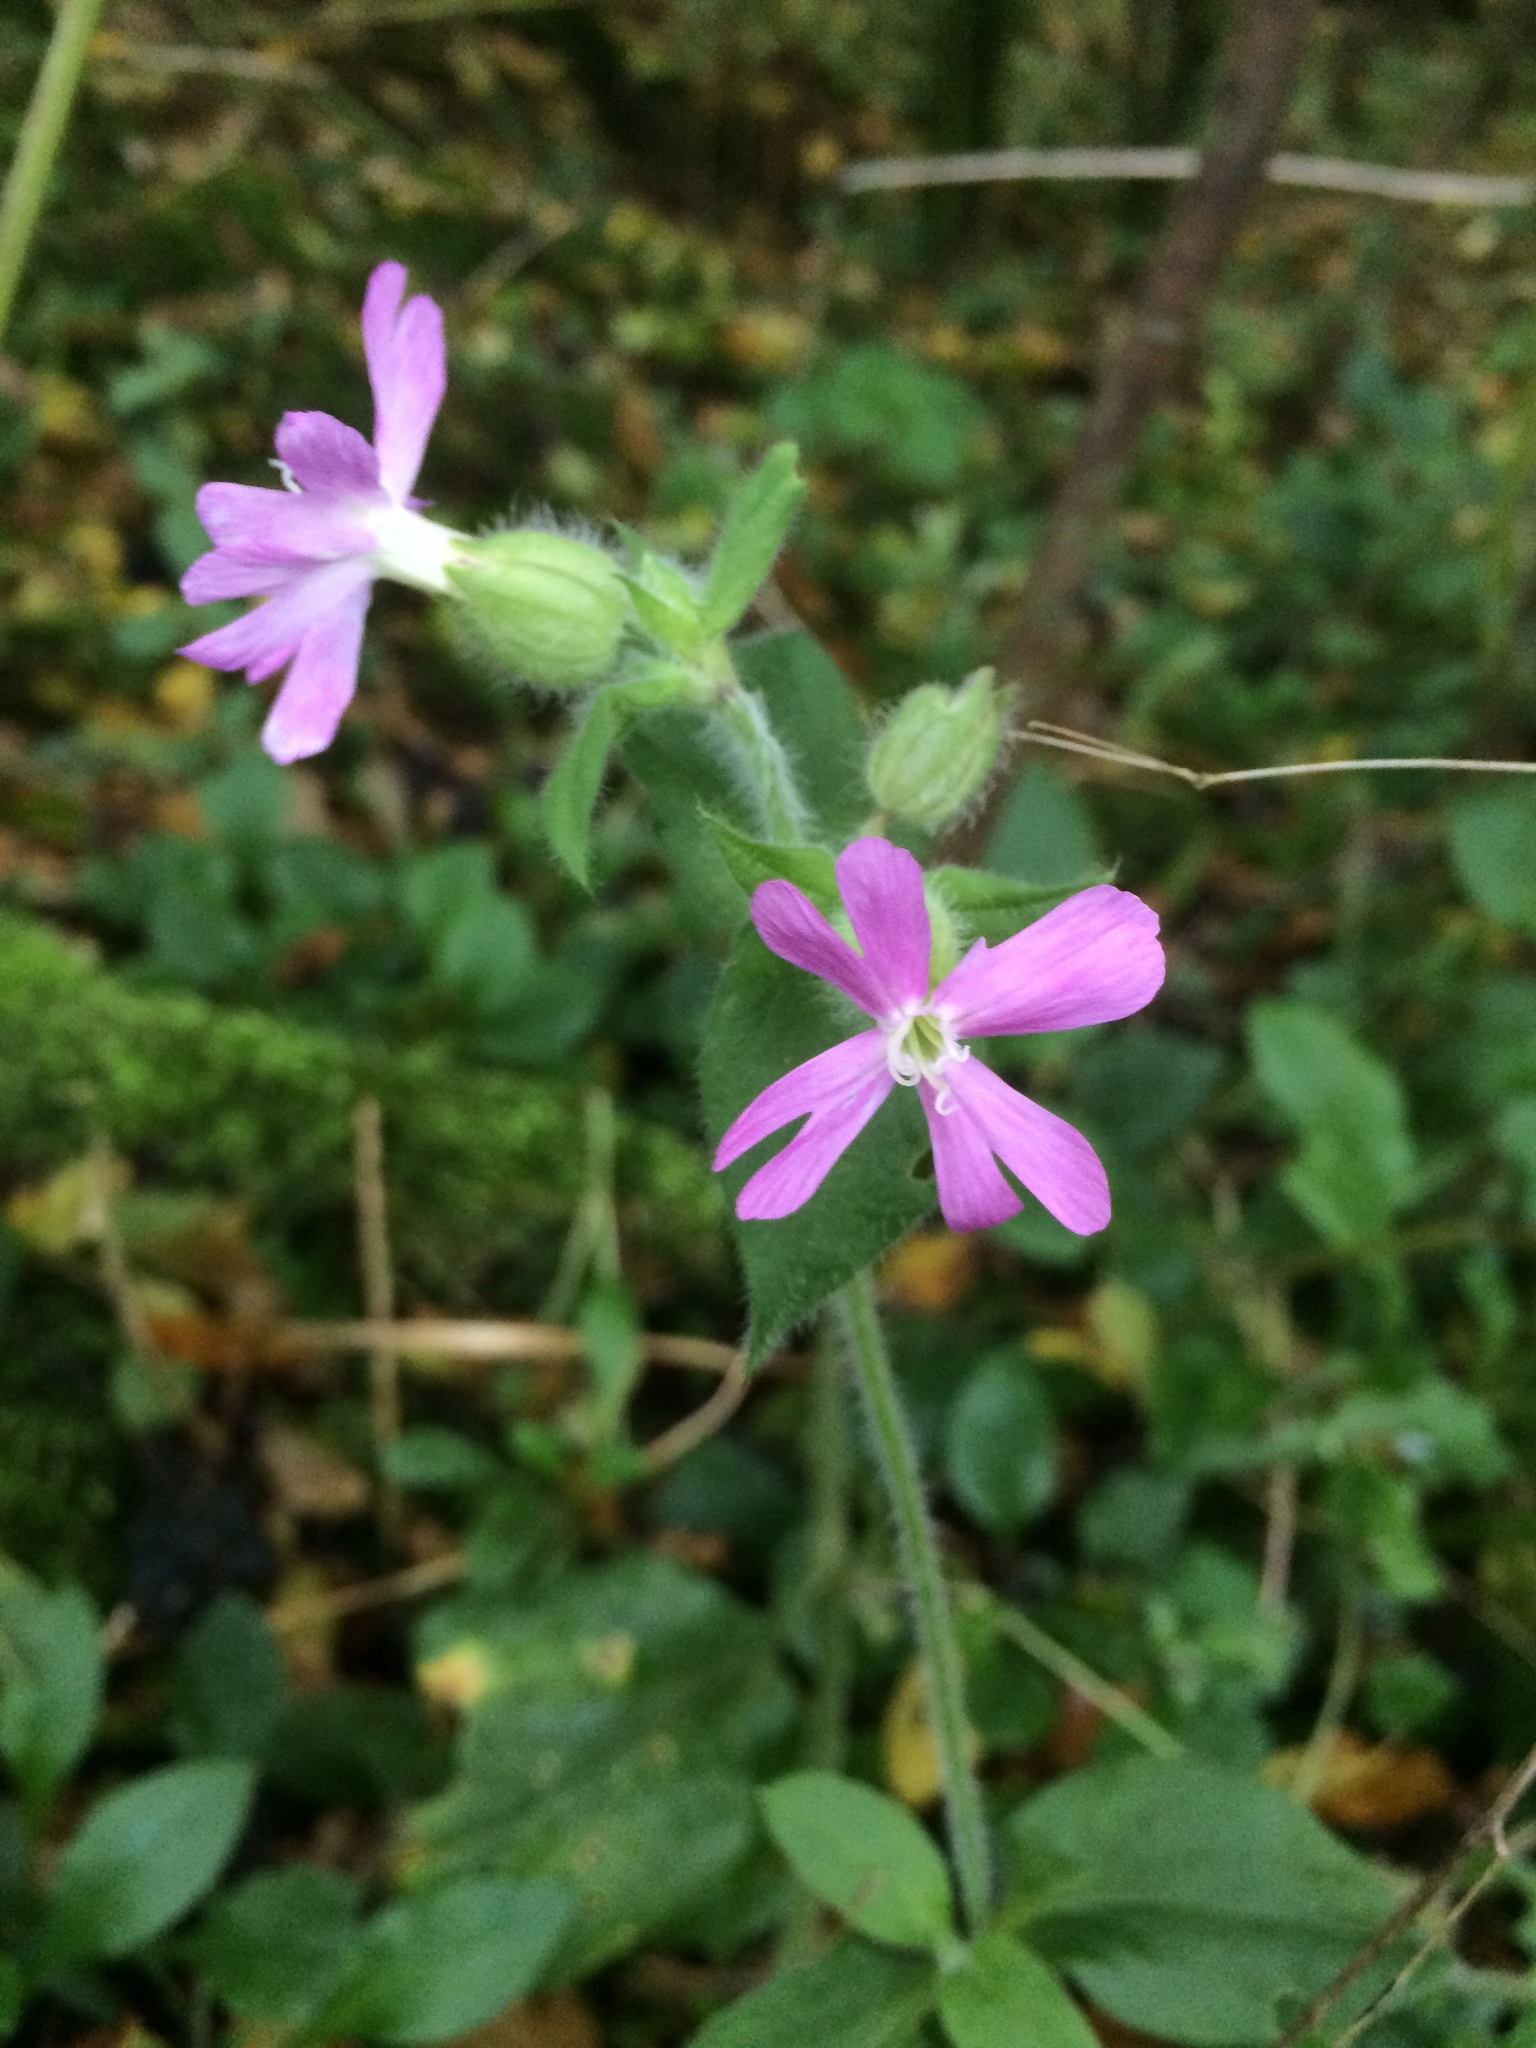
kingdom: Plantae
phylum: Tracheophyta
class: Magnoliopsida
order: Caryophyllales
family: Caryophyllaceae
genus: Silene
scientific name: Silene dioica
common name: Red campion
